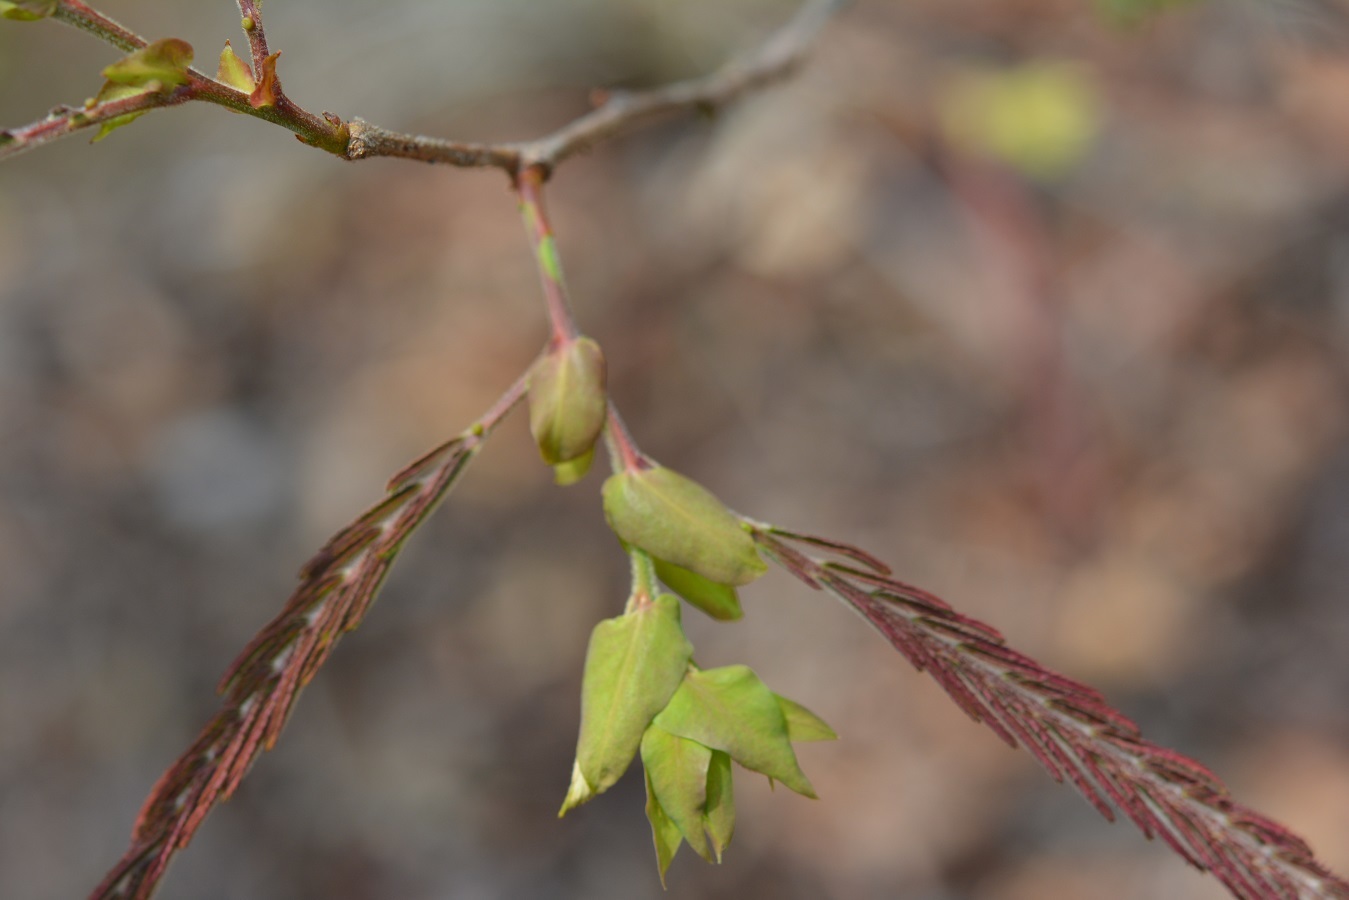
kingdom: Plantae
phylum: Tracheophyta
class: Magnoliopsida
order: Fabales
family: Fabaceae
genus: Lysiloma
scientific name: Lysiloma divaricatum
